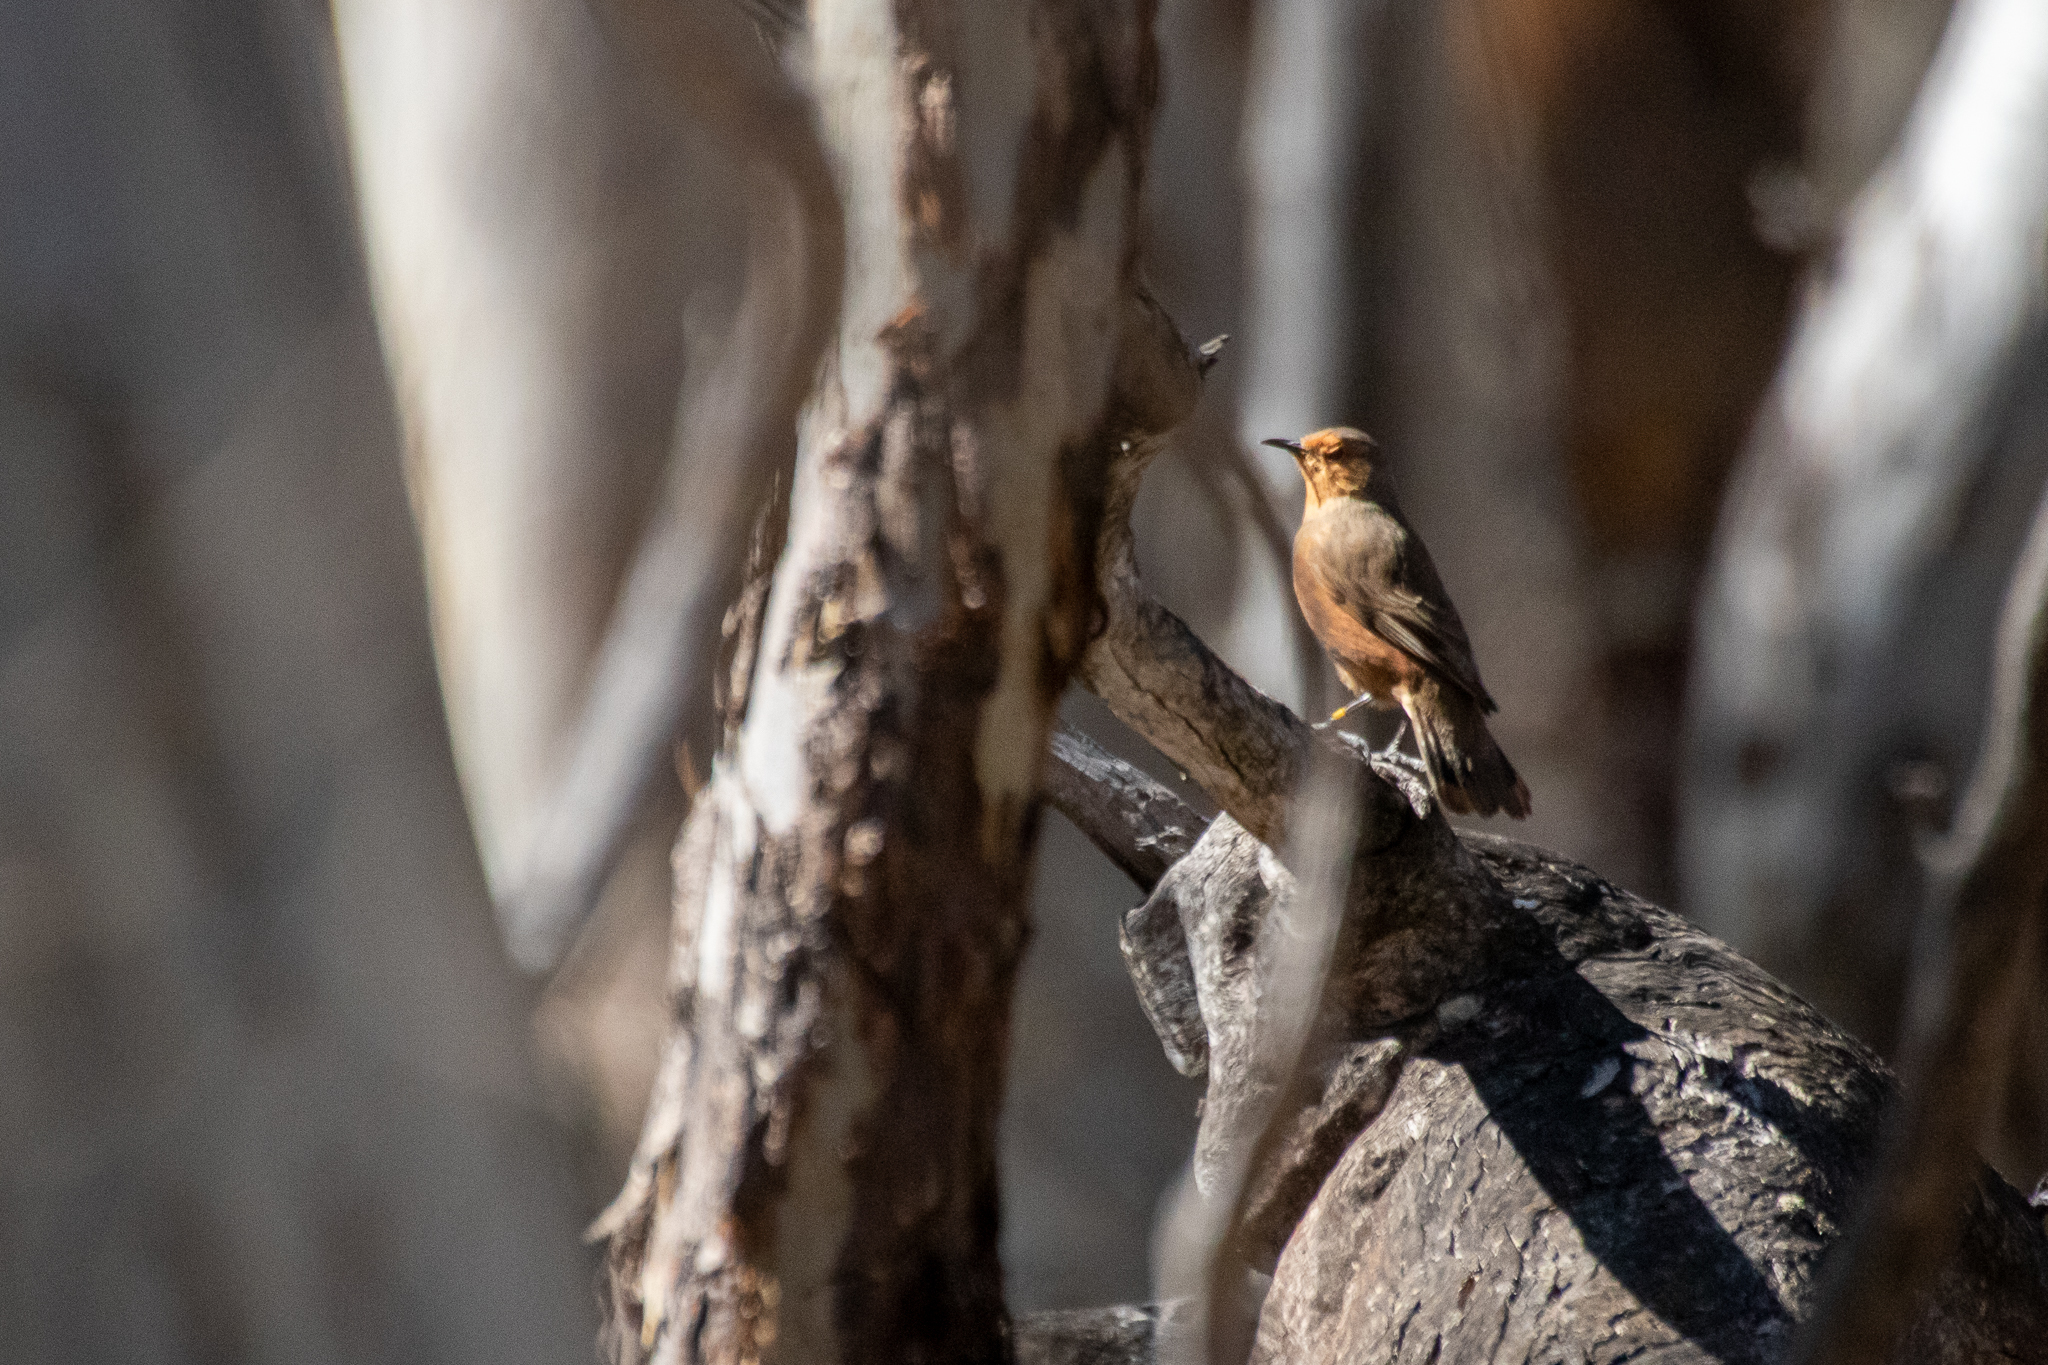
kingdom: Animalia
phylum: Chordata
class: Aves
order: Passeriformes
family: Climacteridae
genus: Climacteris
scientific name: Climacteris rufus
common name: Rufous treecreeper
